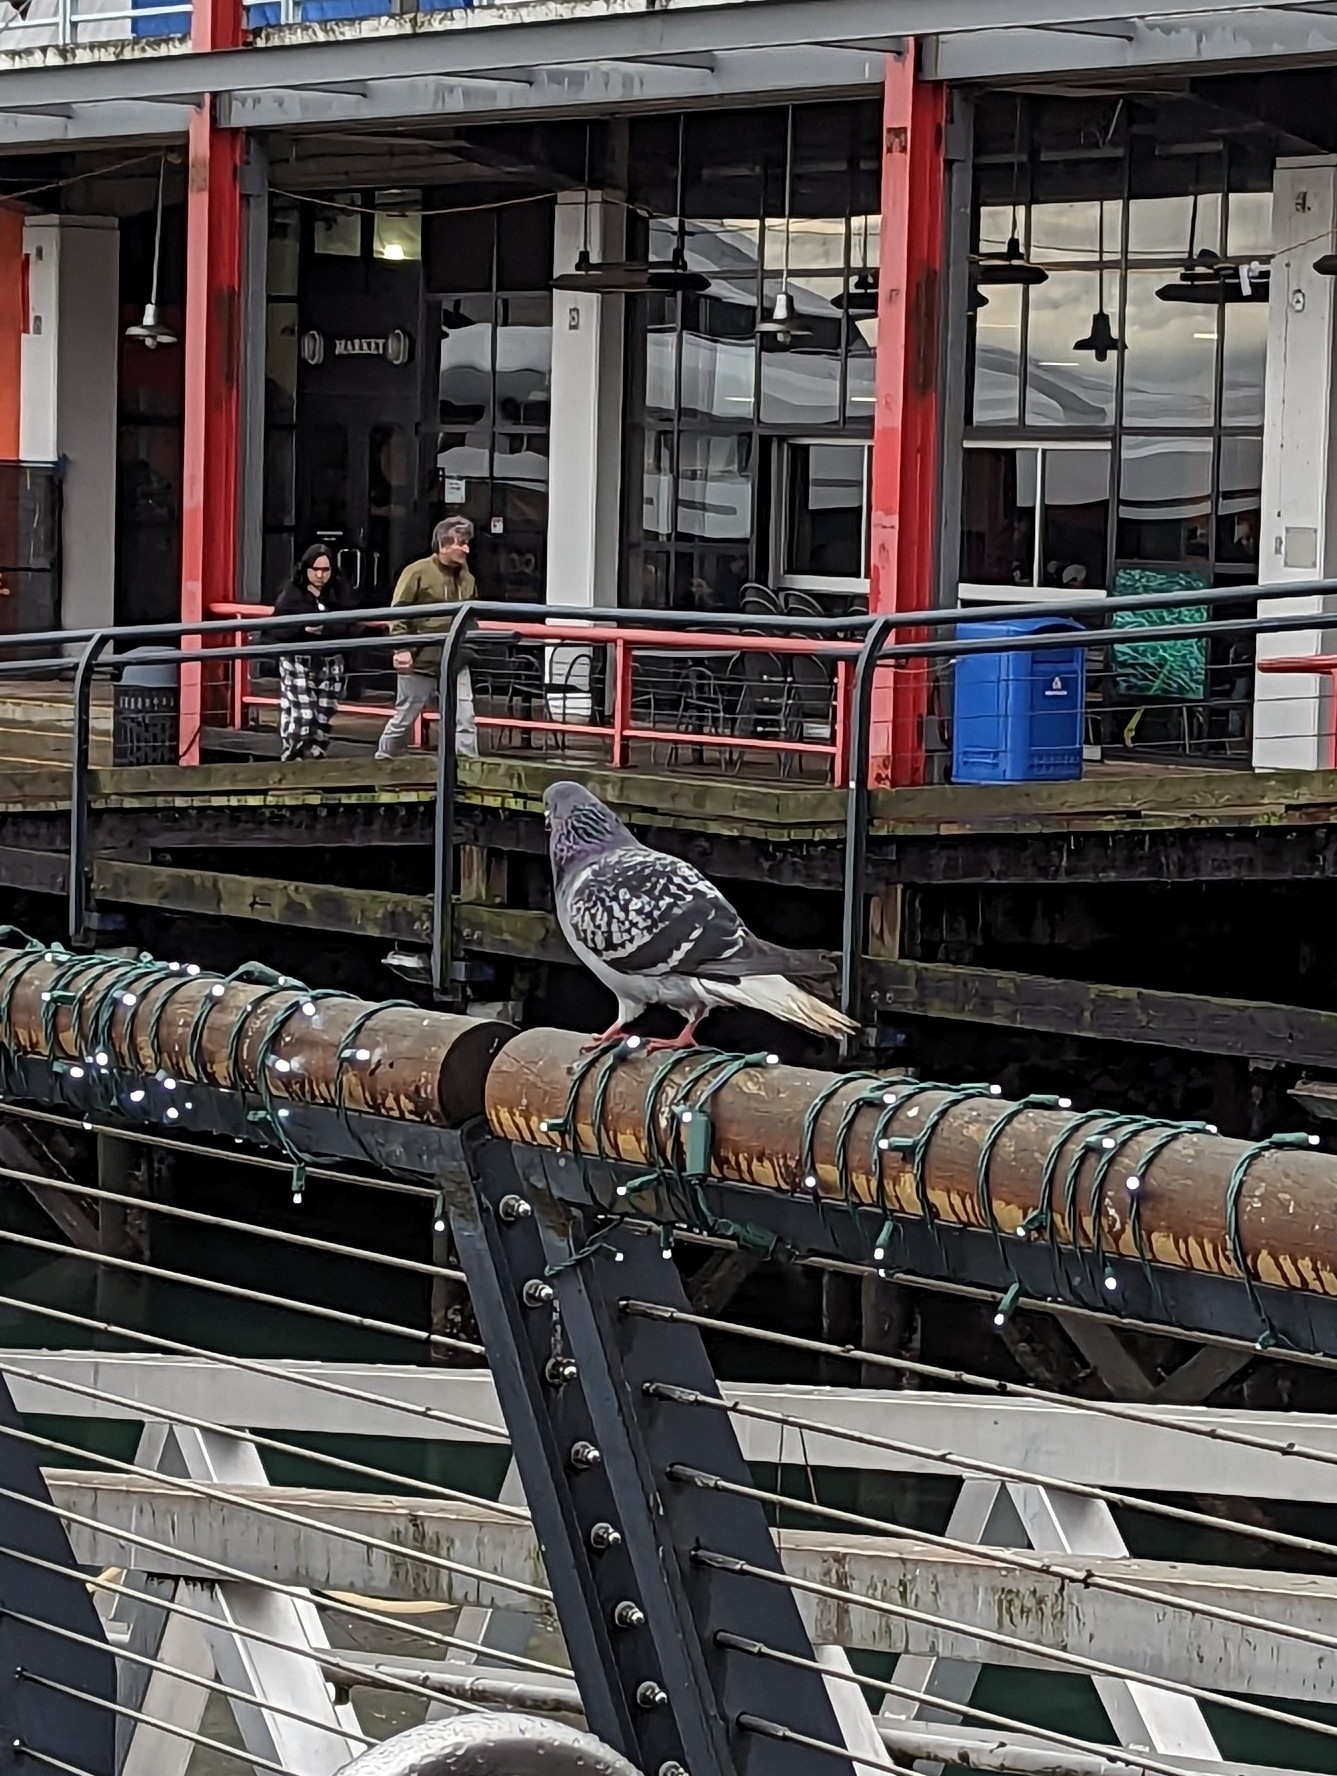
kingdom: Animalia
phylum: Chordata
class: Aves
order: Columbiformes
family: Columbidae
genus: Columba
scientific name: Columba livia
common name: Rock pigeon
